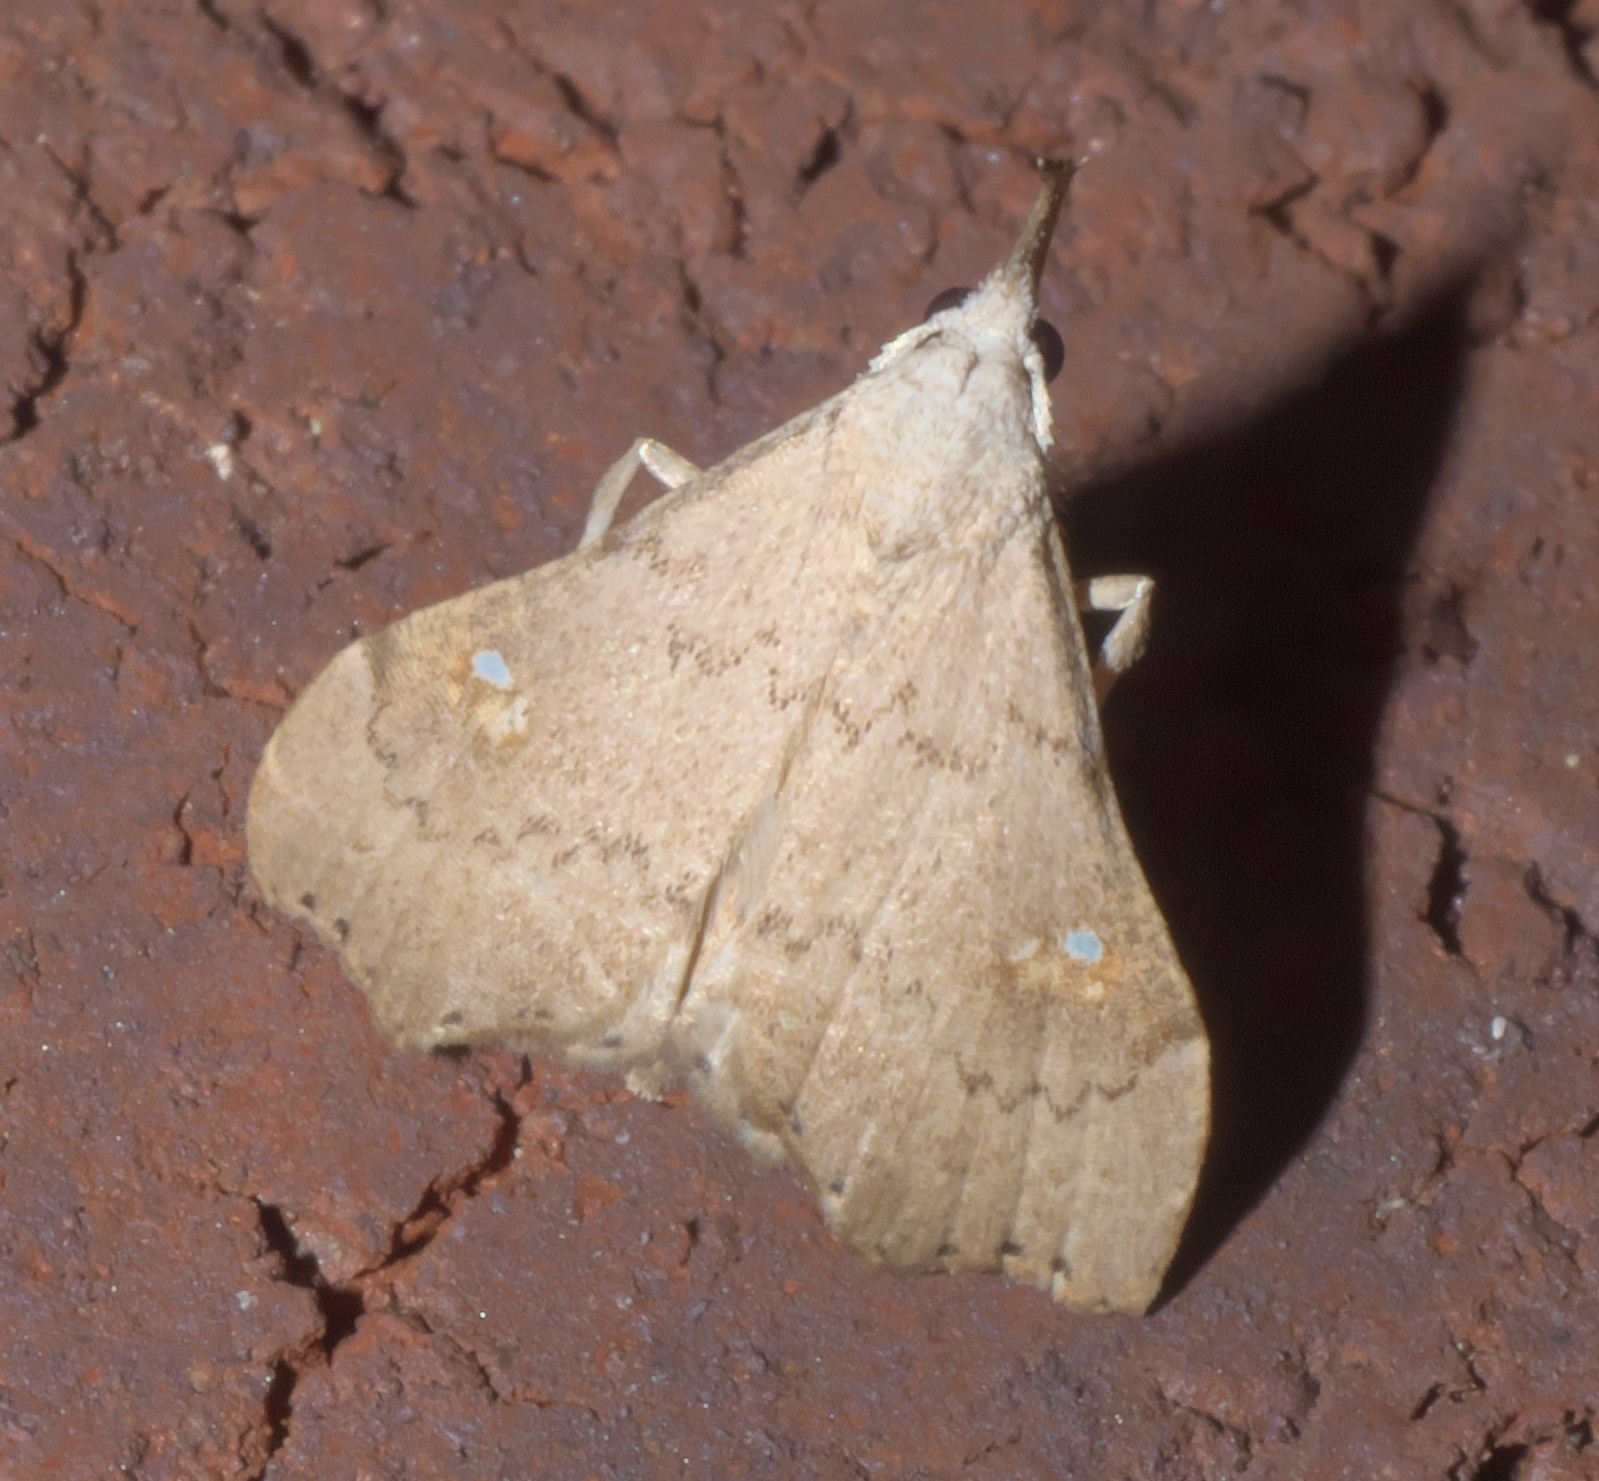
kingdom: Animalia
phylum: Arthropoda
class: Insecta
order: Lepidoptera
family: Erebidae
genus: Redectis
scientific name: Redectis vitrea
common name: White-spotted redectis
